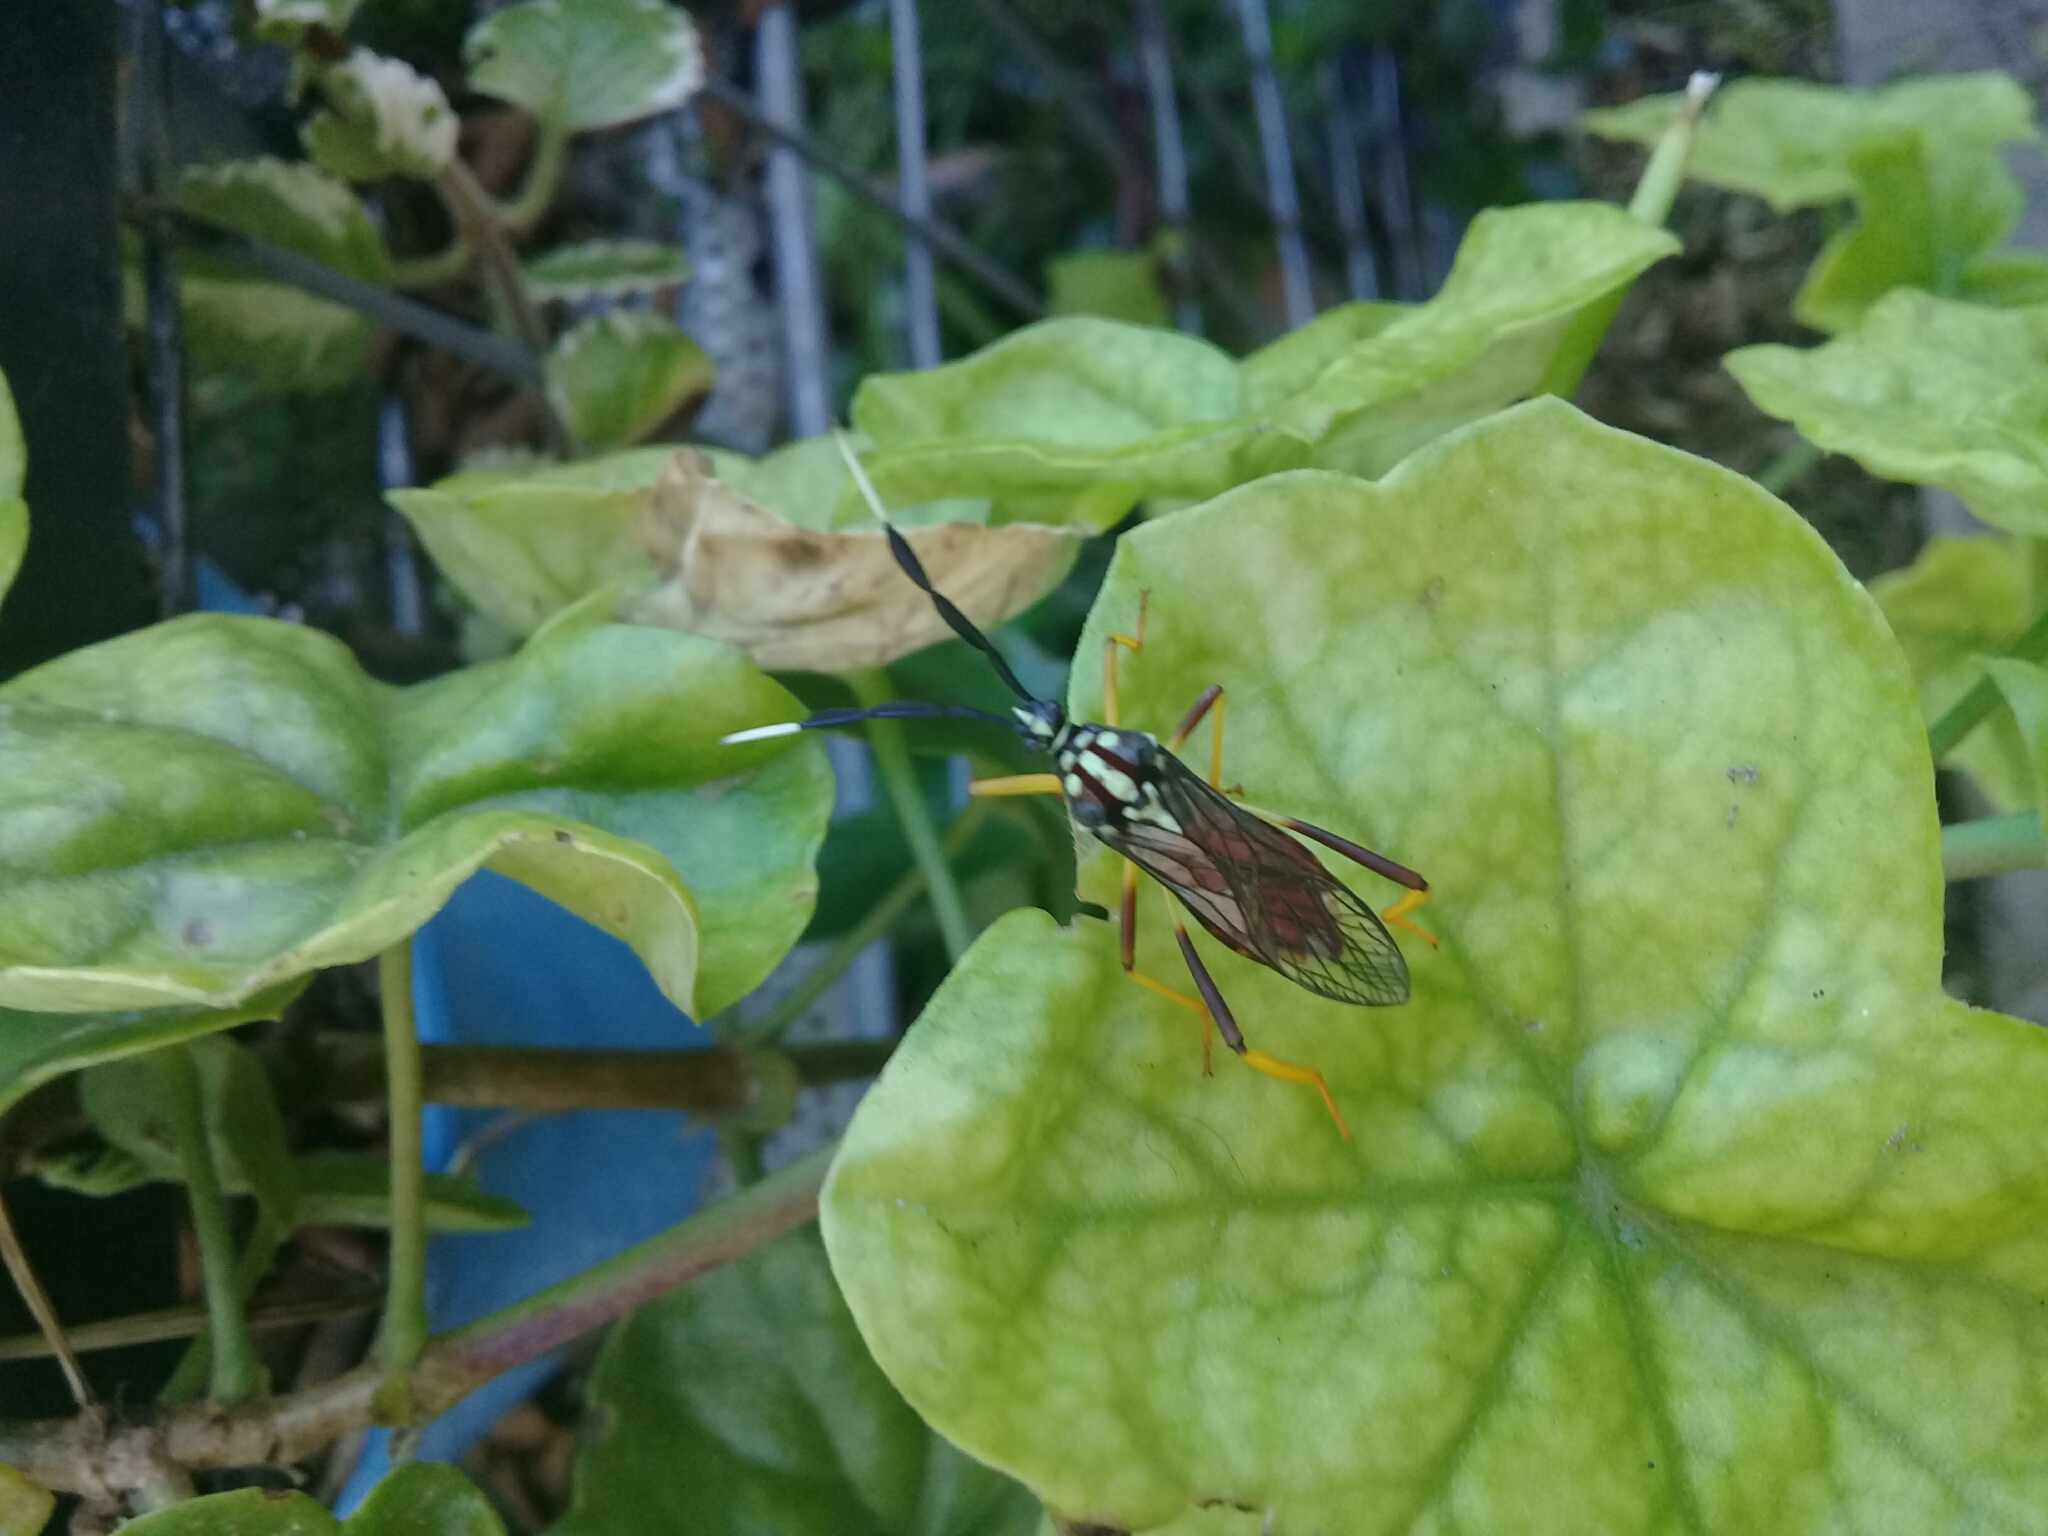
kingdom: Animalia
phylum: Arthropoda
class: Insecta
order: Hemiptera
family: Coreidae
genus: Holhymenia
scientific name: Holhymenia histrio
